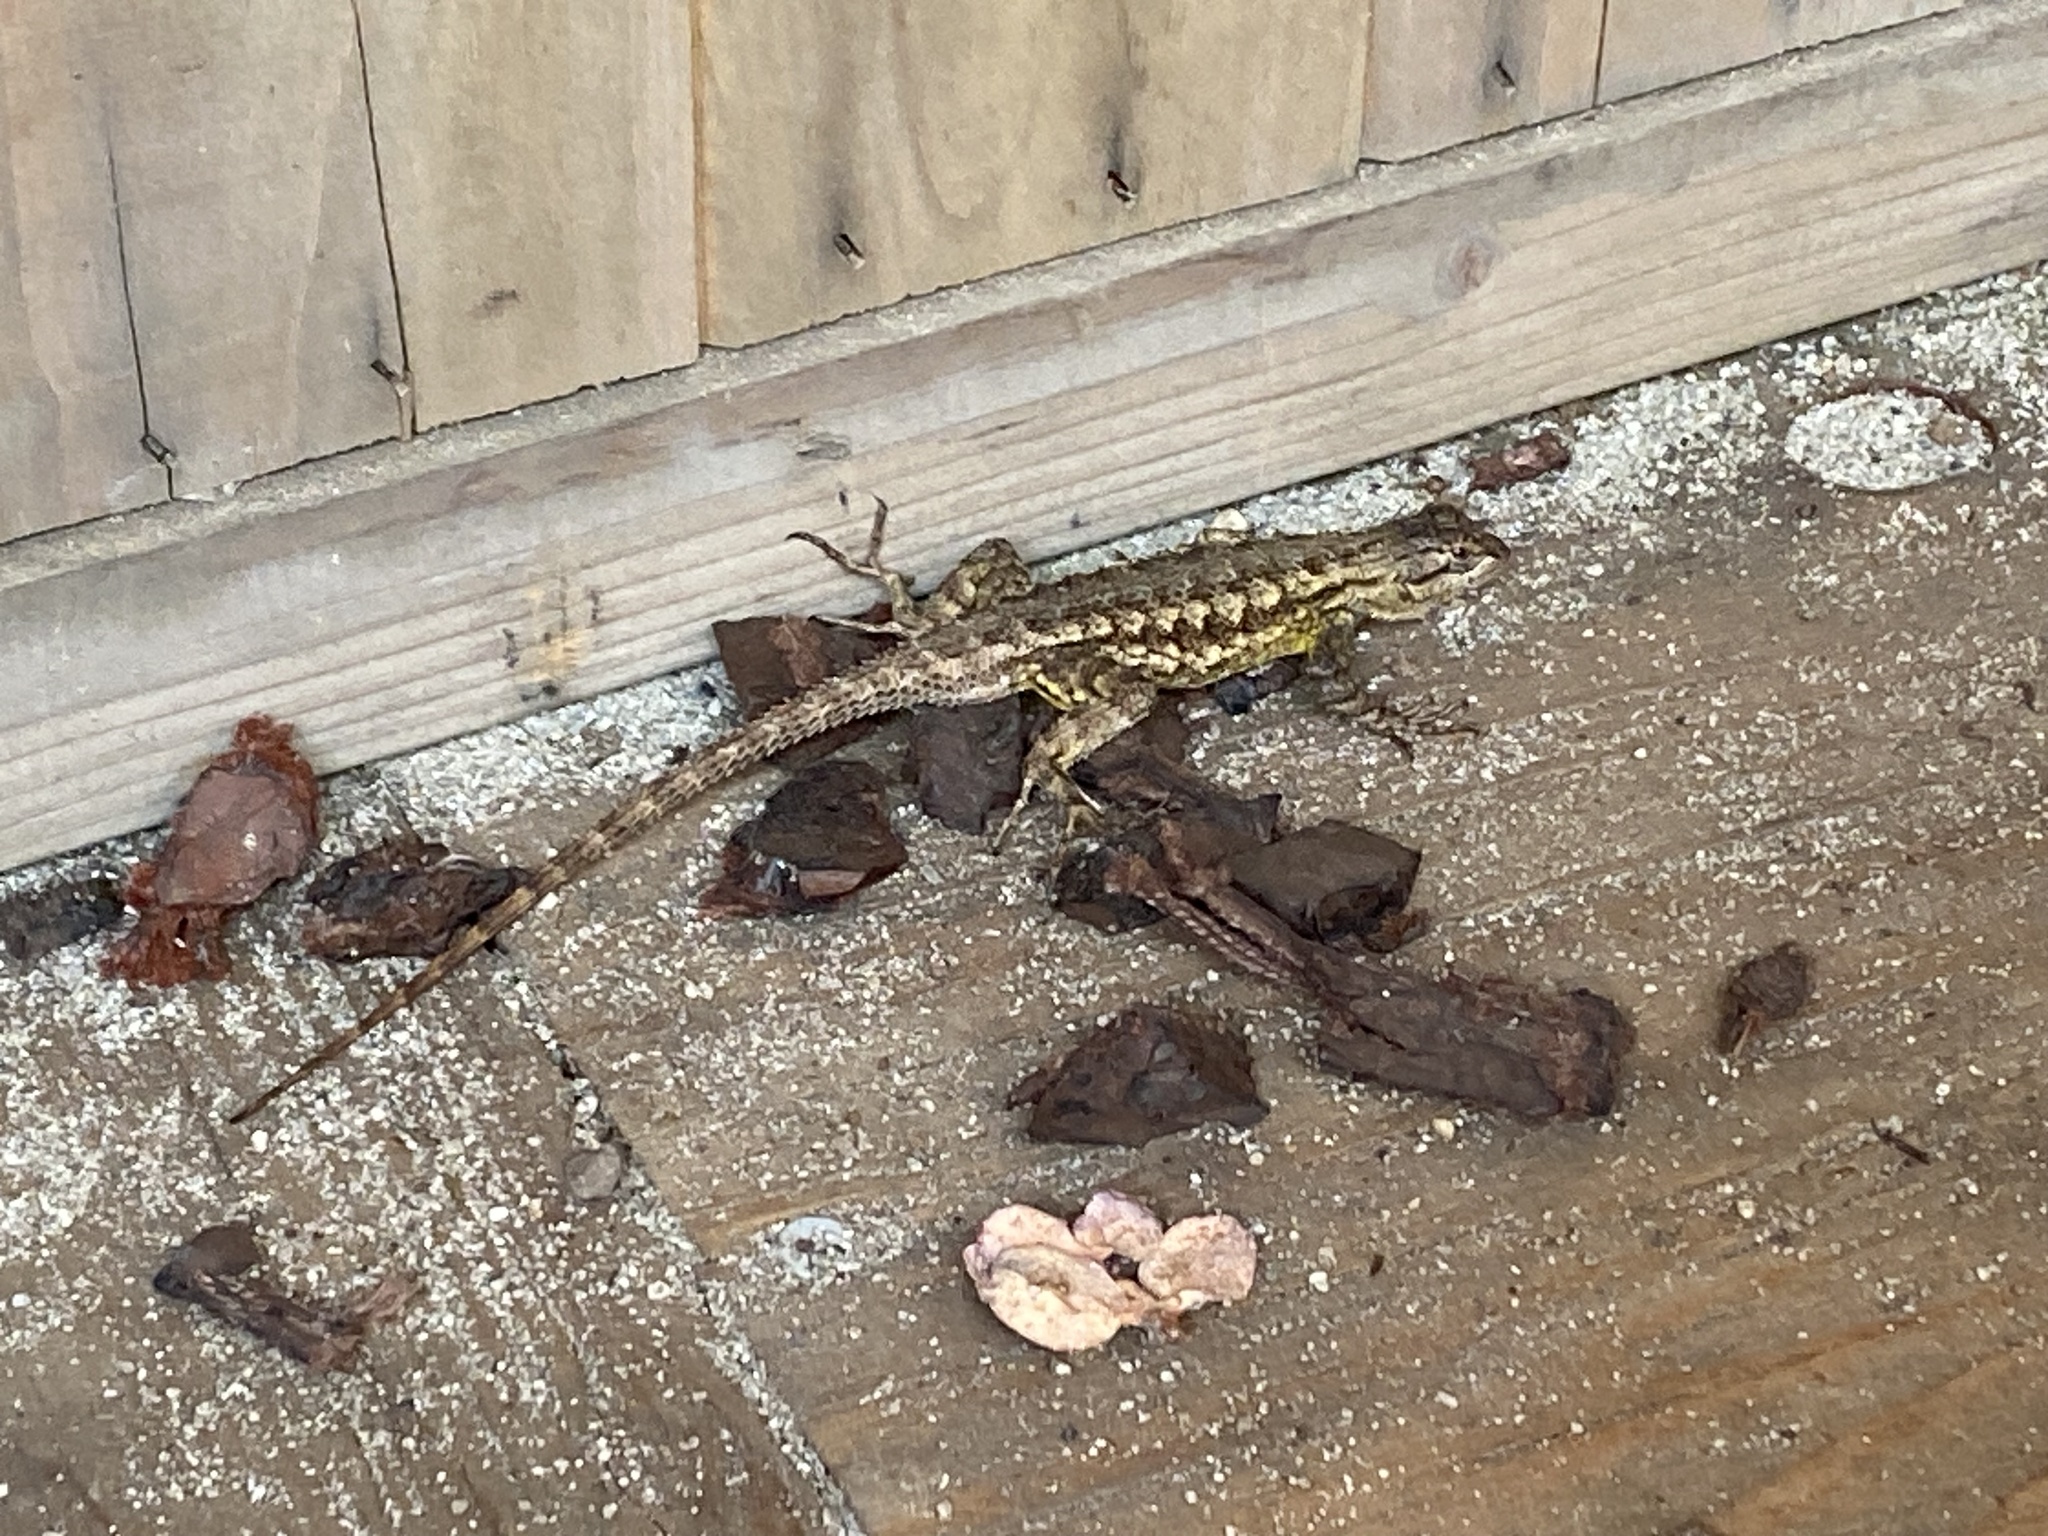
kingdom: Animalia
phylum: Chordata
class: Squamata
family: Phrynosomatidae
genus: Sceloporus
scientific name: Sceloporus occidentalis
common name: Western fence lizard
